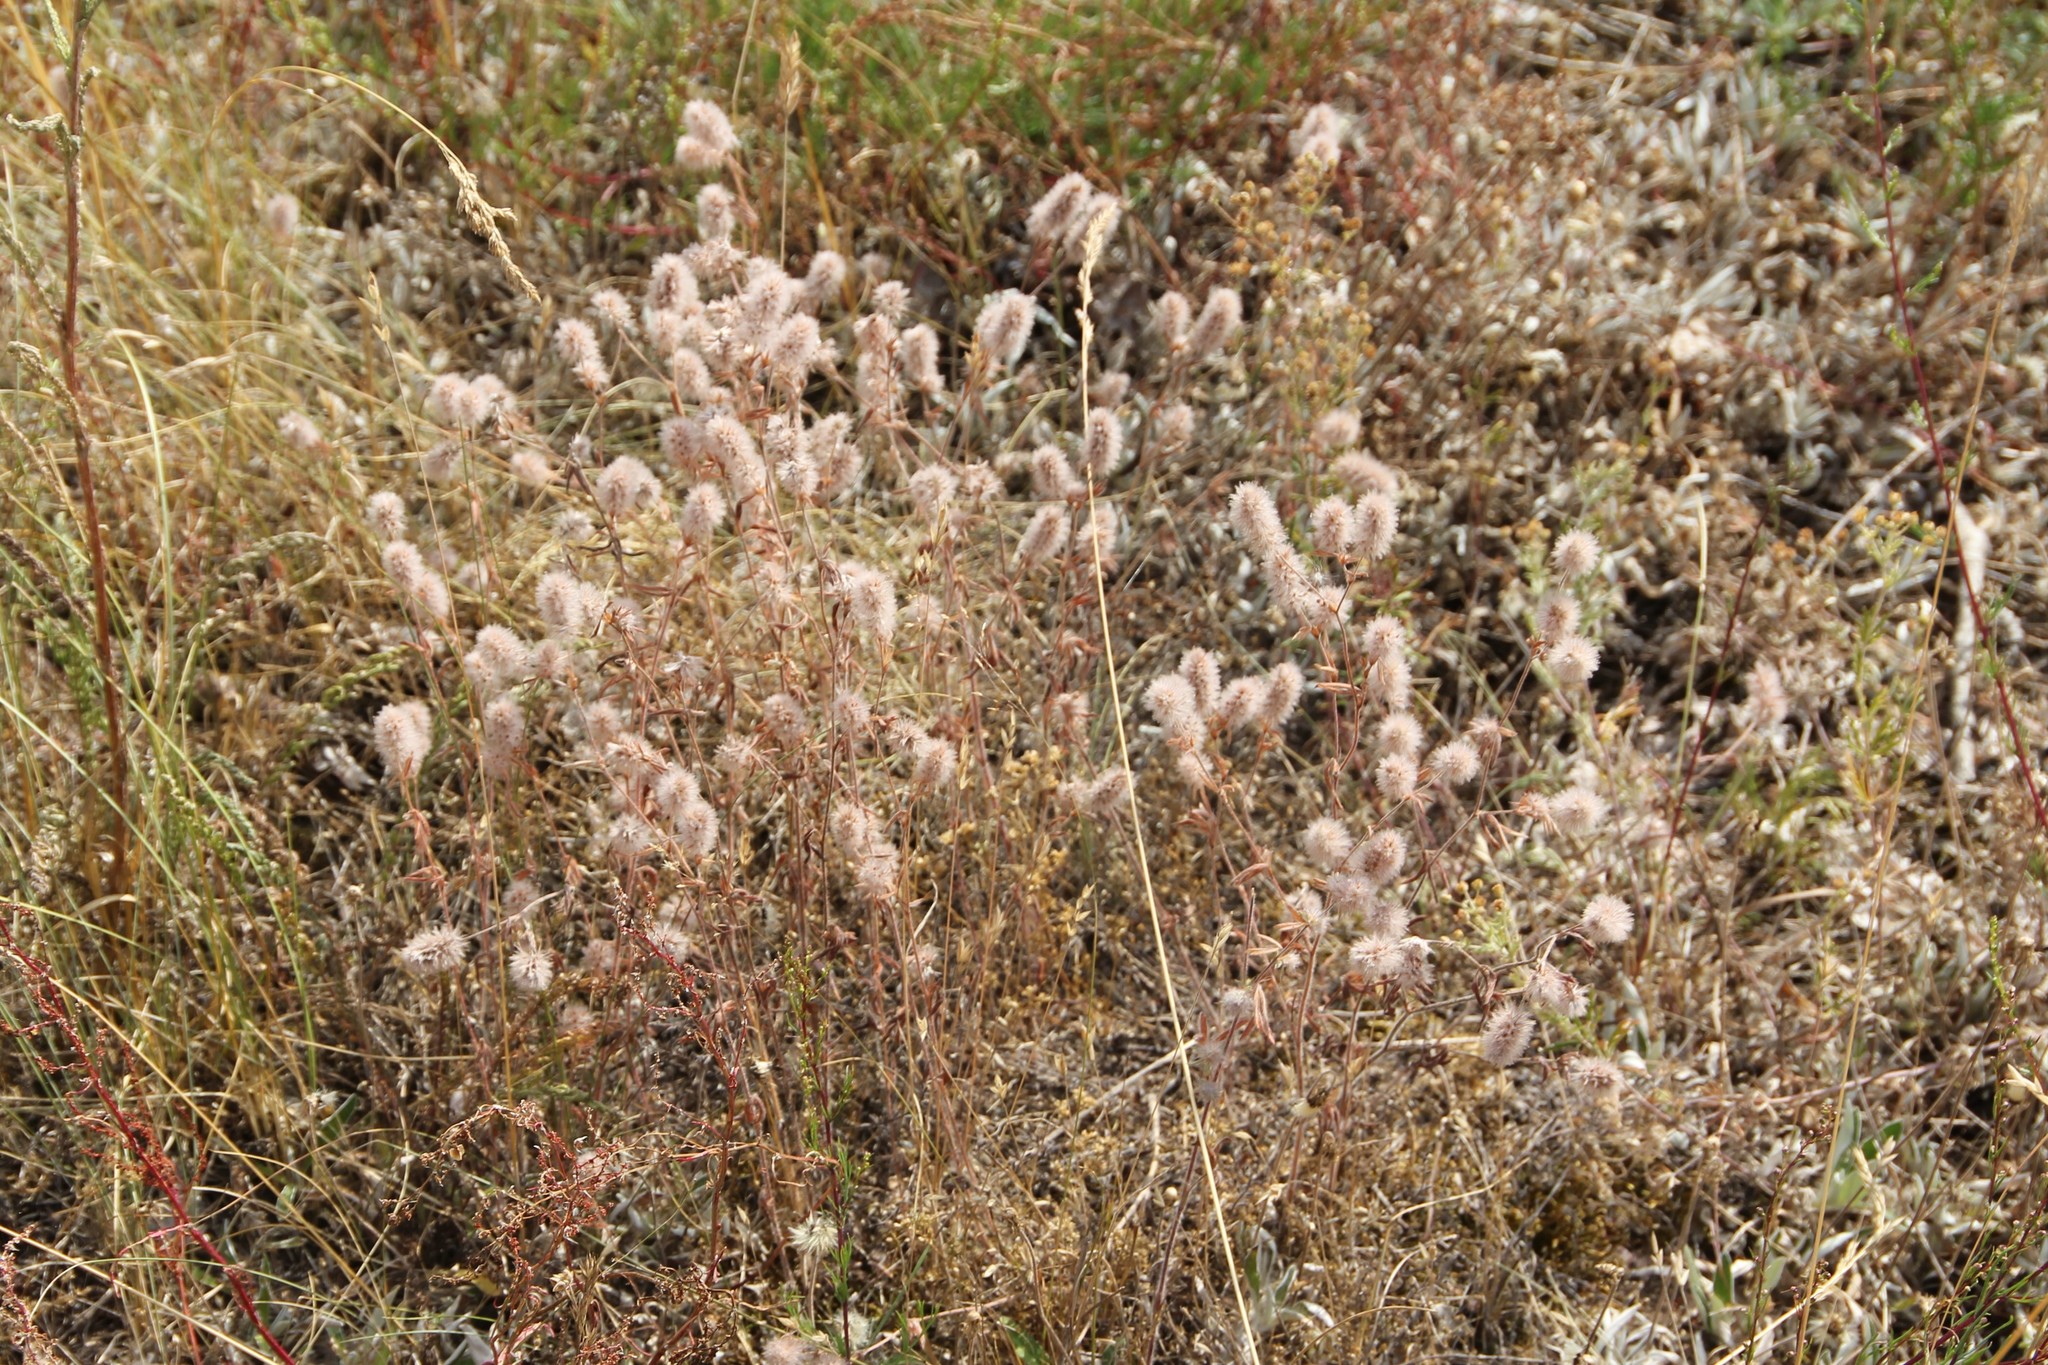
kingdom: Plantae
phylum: Tracheophyta
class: Magnoliopsida
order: Fabales
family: Fabaceae
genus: Trifolium
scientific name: Trifolium arvense
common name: Hare's-foot clover
